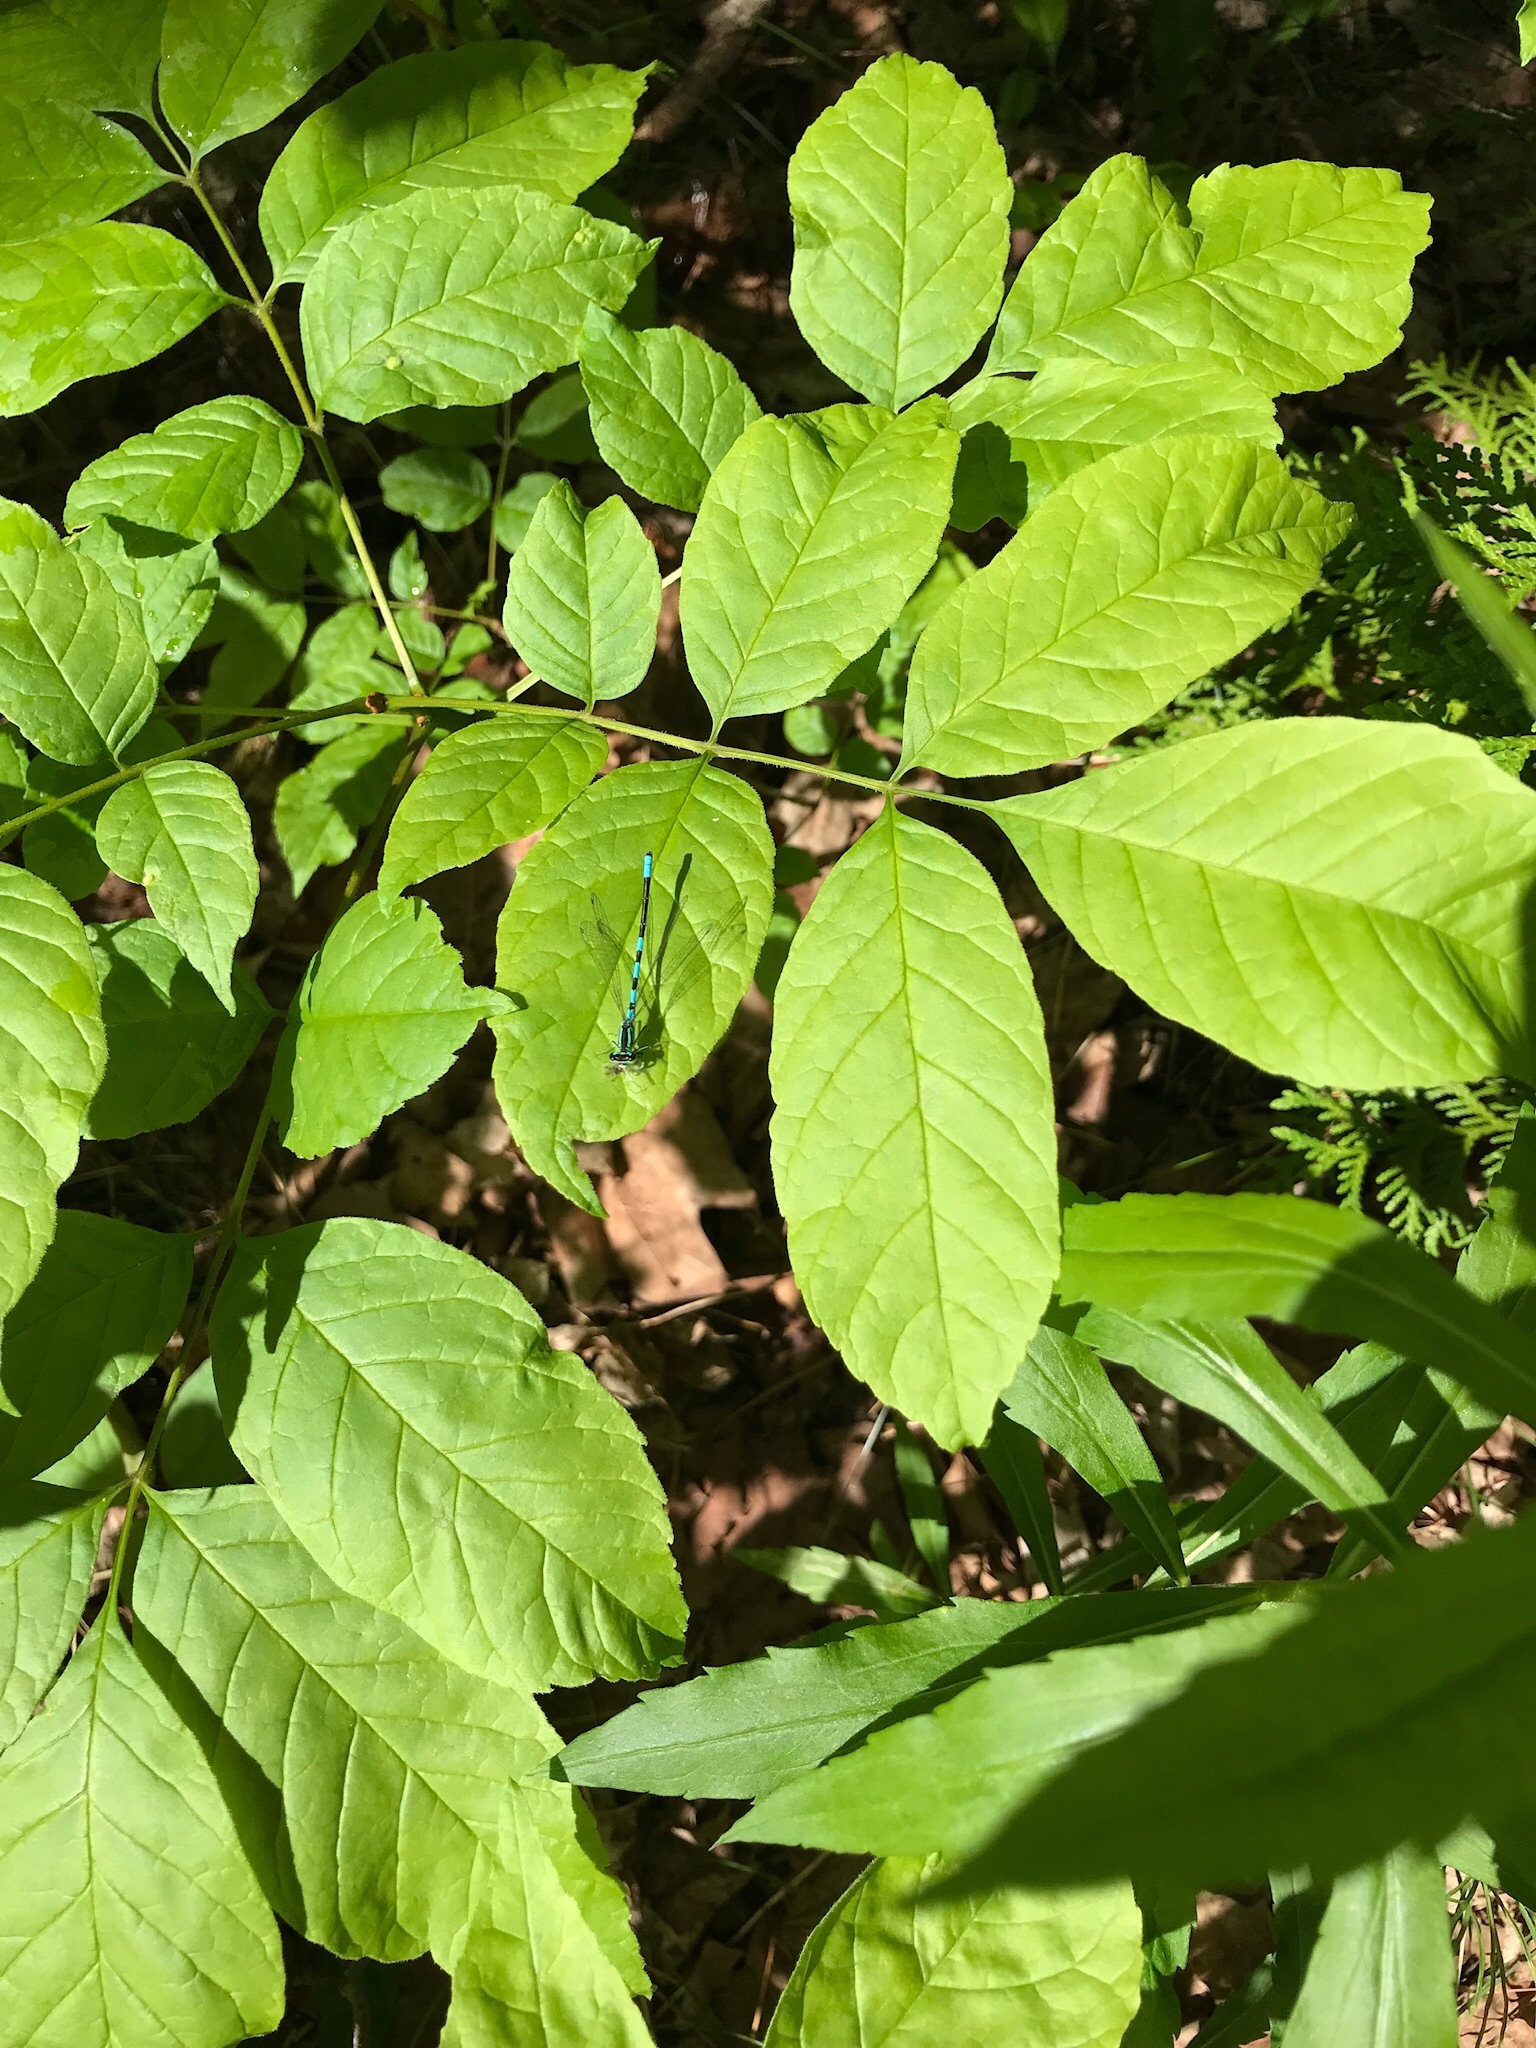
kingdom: Animalia
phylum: Arthropoda
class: Insecta
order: Odonata
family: Coenagrionidae
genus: Coenagrion
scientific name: Coenagrion resolutum
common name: Taiga bluet
